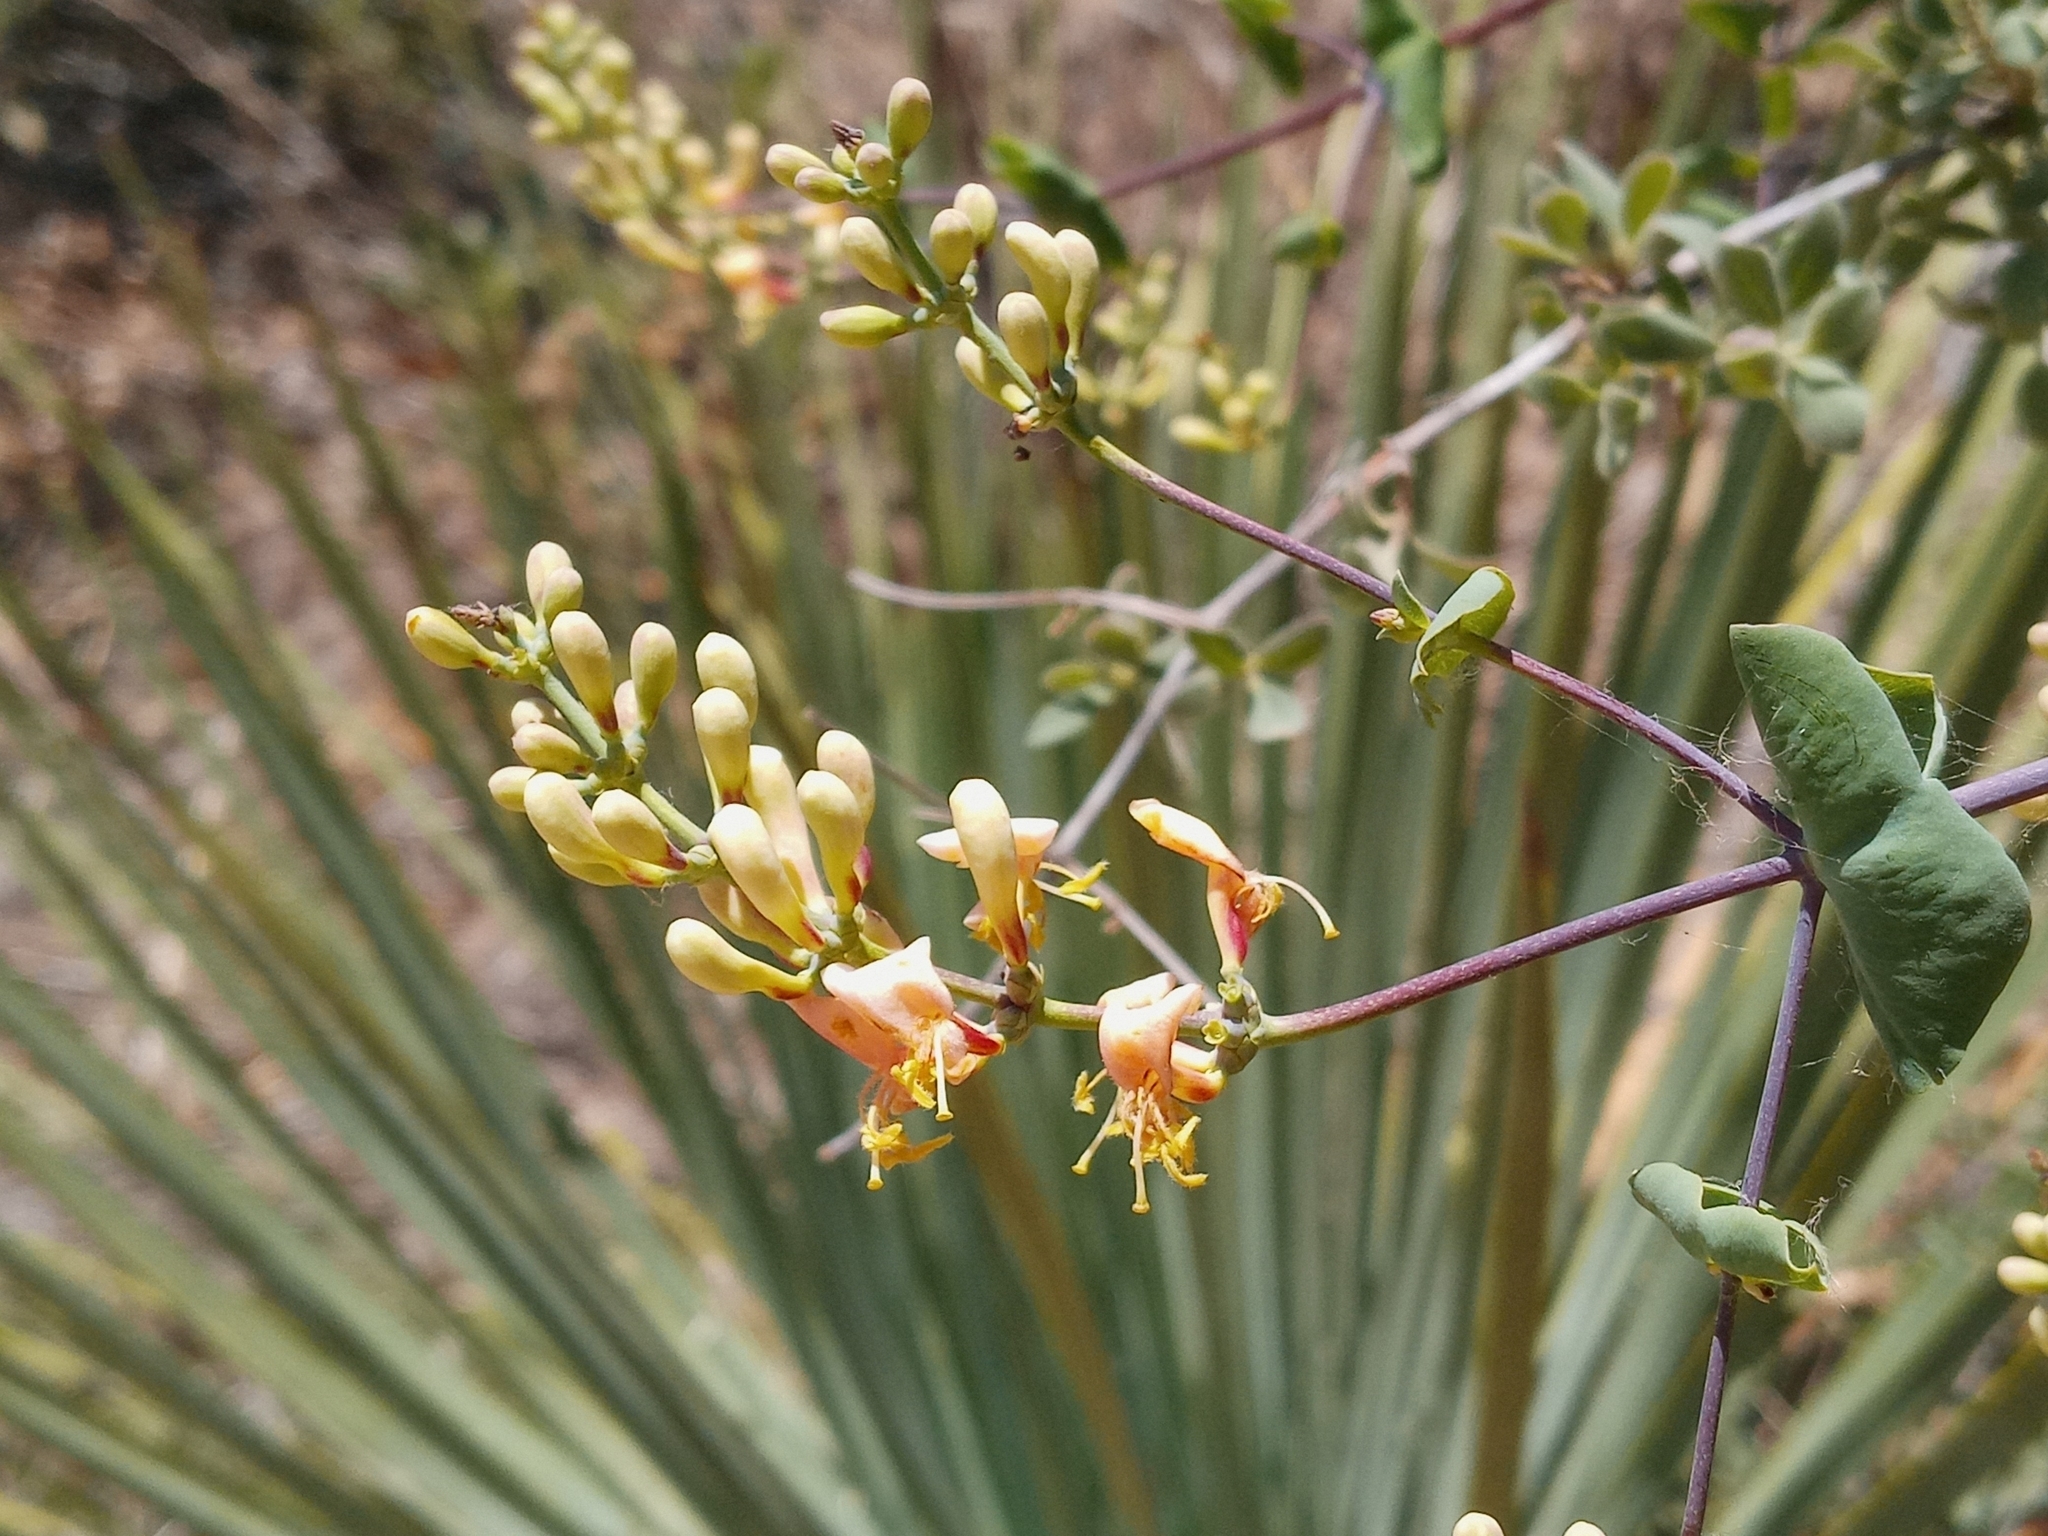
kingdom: Plantae
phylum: Tracheophyta
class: Magnoliopsida
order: Dipsacales
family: Caprifoliaceae
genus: Lonicera
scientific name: Lonicera interrupta
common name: Chaparral honeysuckle
